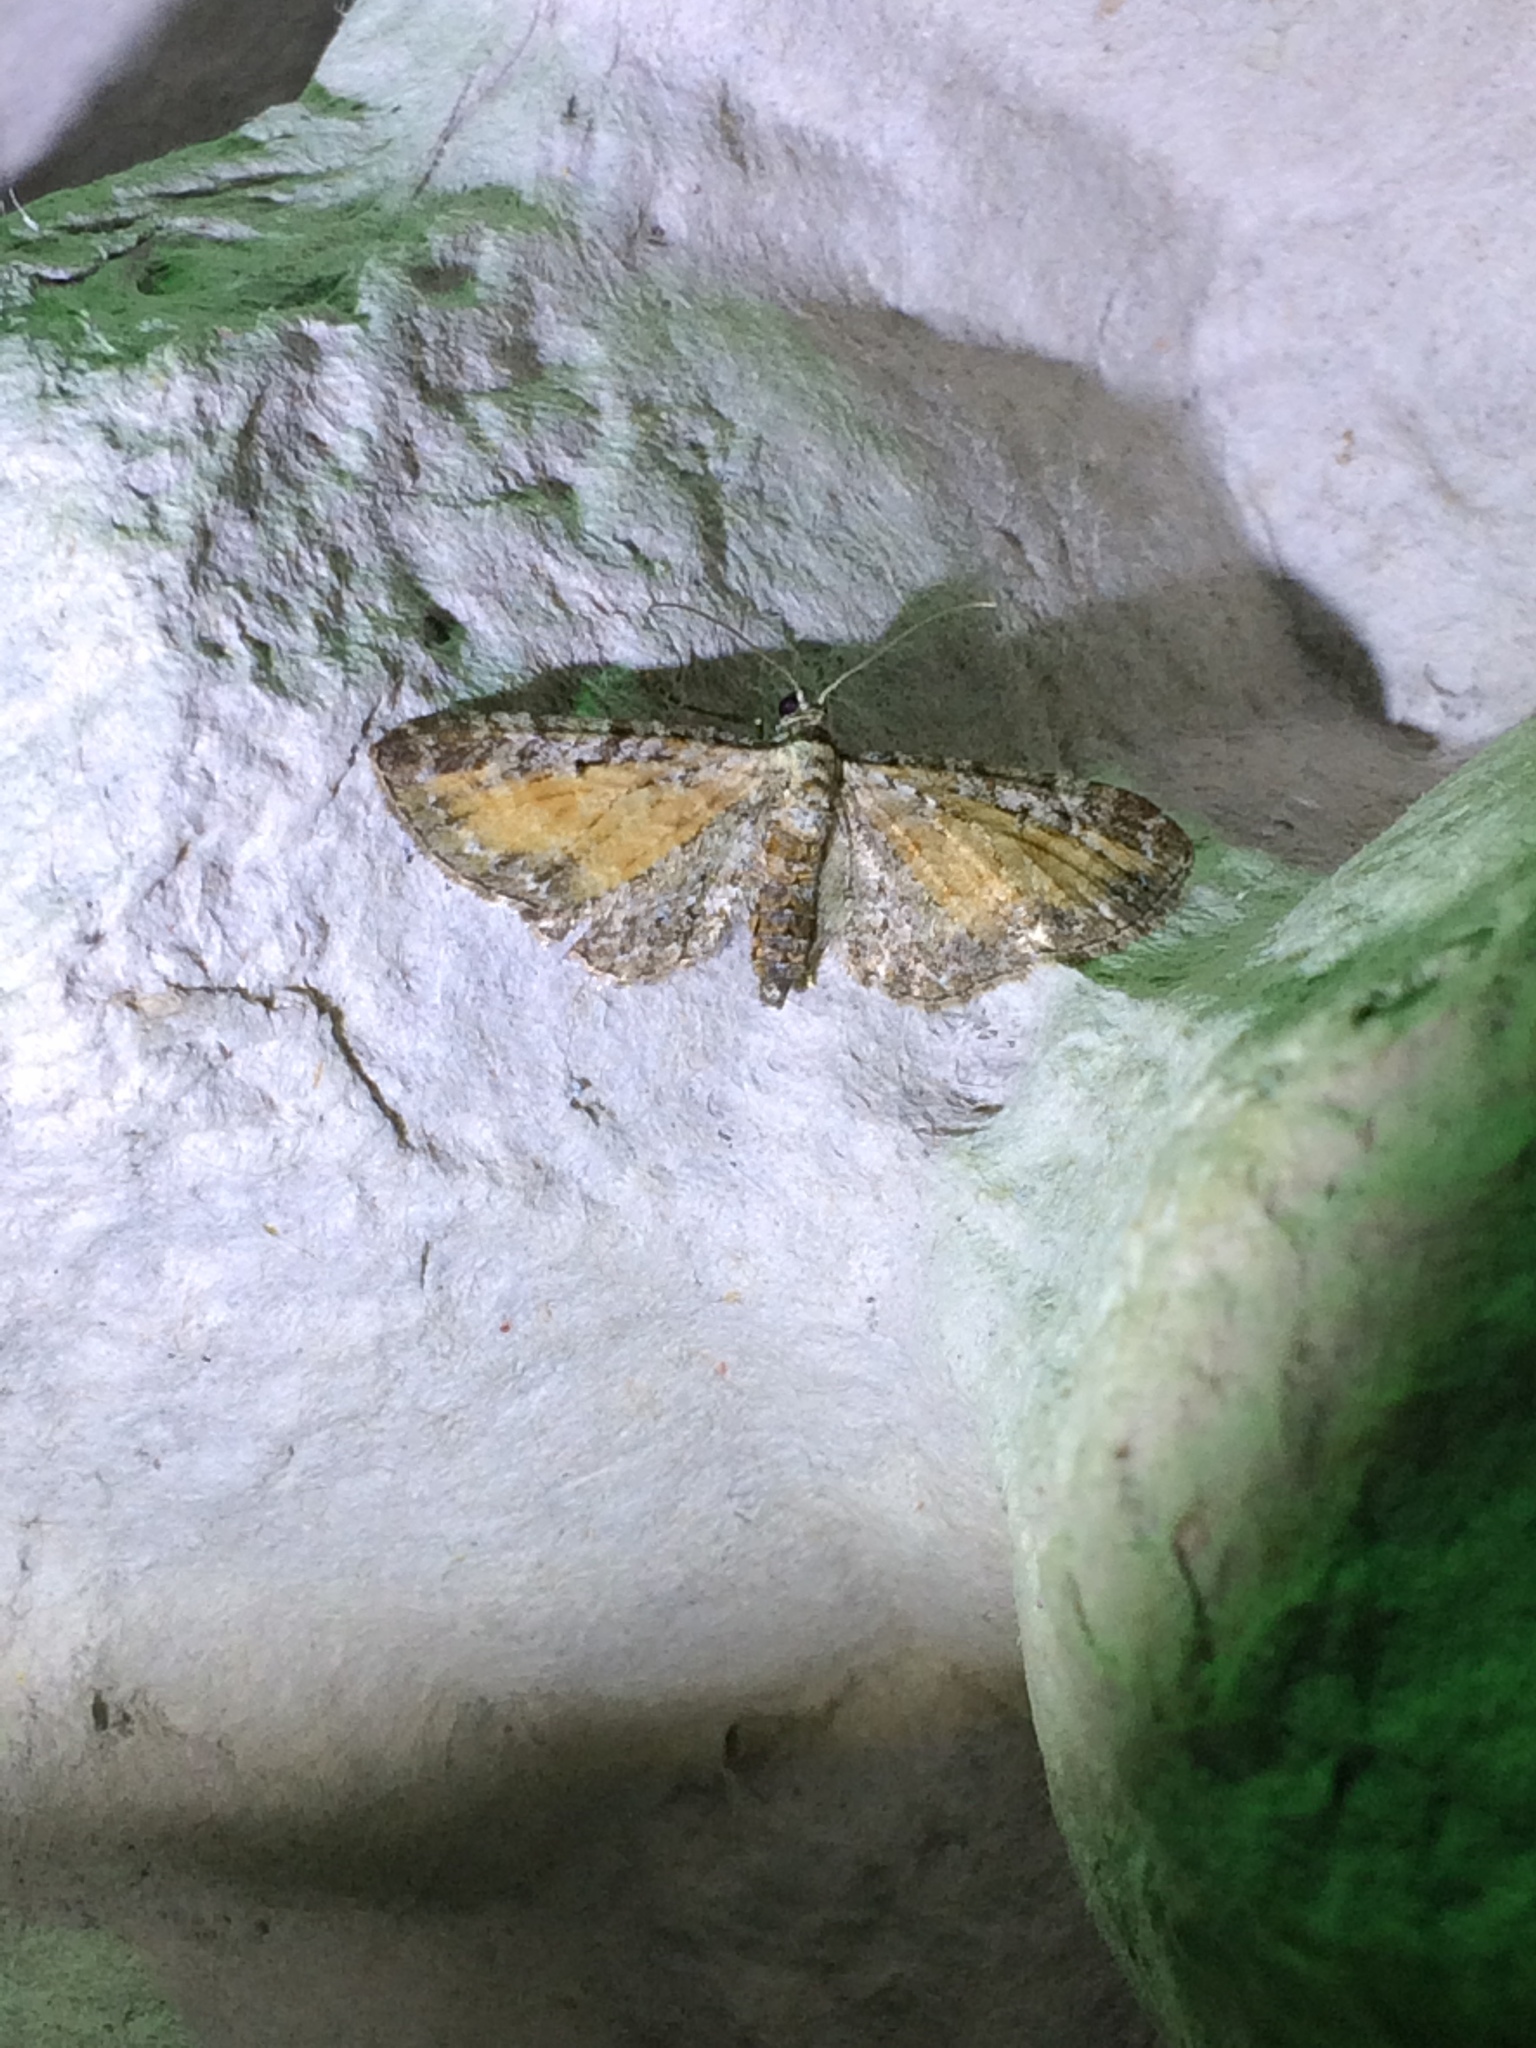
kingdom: Animalia
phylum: Arthropoda
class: Insecta
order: Lepidoptera
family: Geometridae
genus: Eupithecia
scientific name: Eupithecia icterata
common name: Tawny speckled pug
